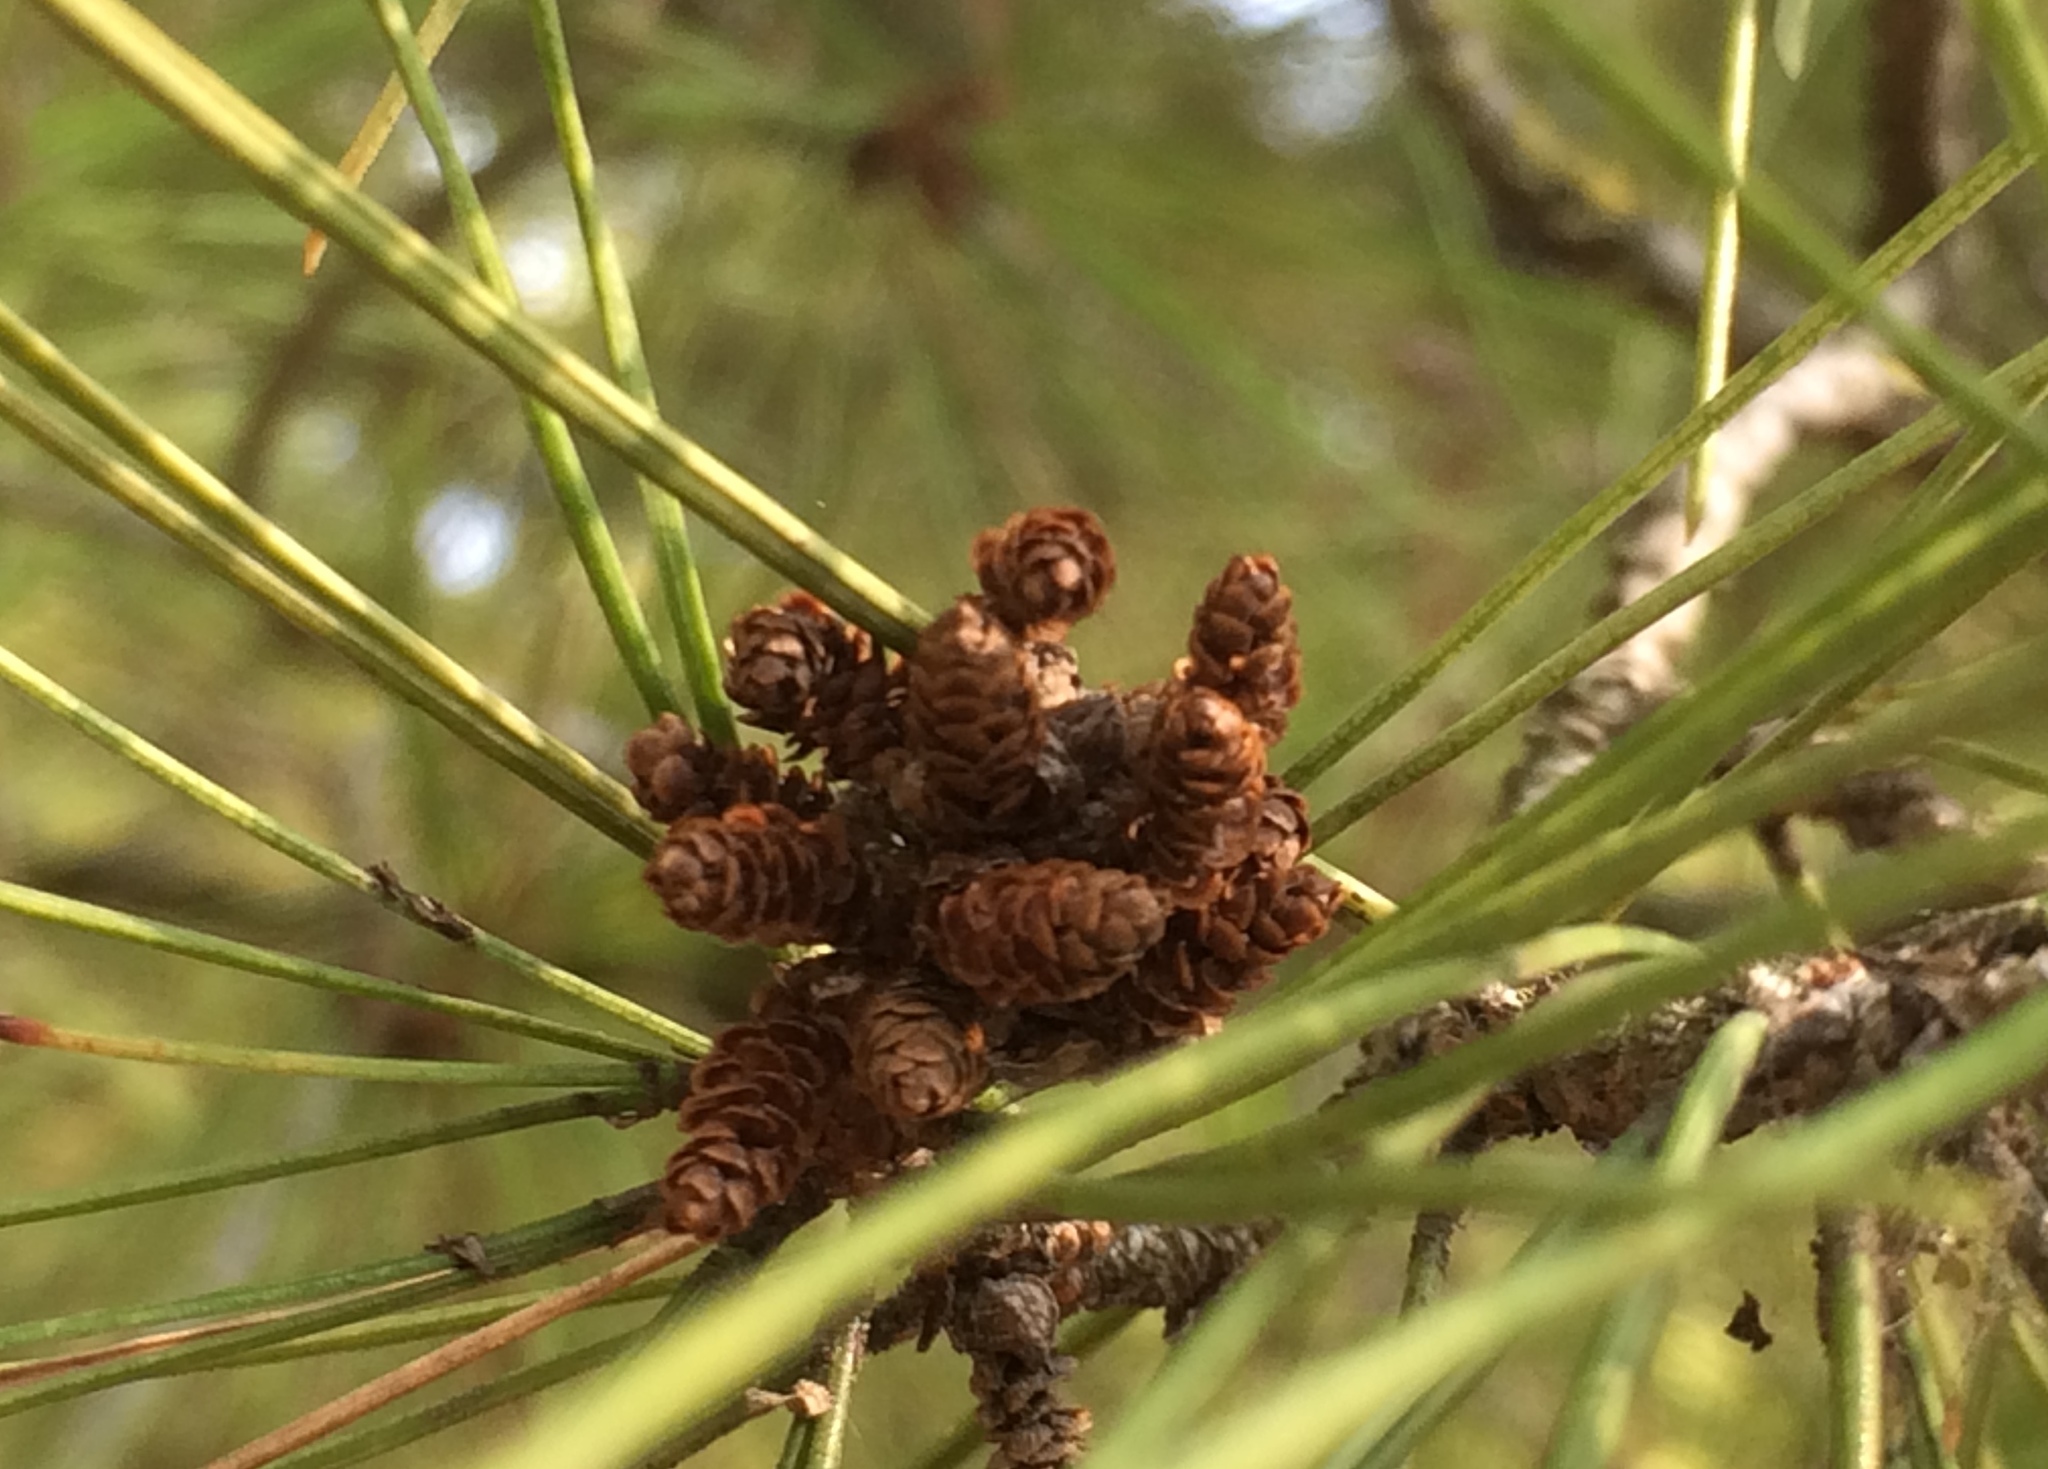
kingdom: Plantae
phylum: Tracheophyta
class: Pinopsida
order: Pinales
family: Pinaceae
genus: Pinus
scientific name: Pinus halepensis
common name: Aleppo pine
